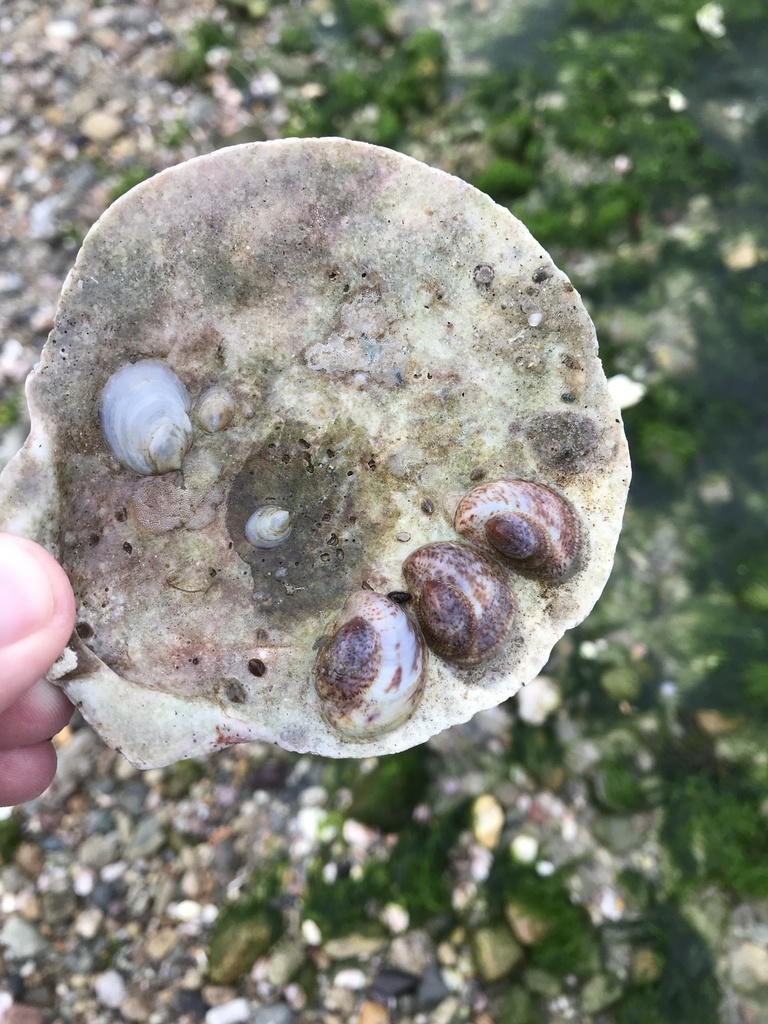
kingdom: Animalia
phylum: Mollusca
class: Gastropoda
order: Littorinimorpha
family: Calyptraeidae
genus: Crepidula
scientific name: Crepidula plana
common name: Eastern white slippersnail
